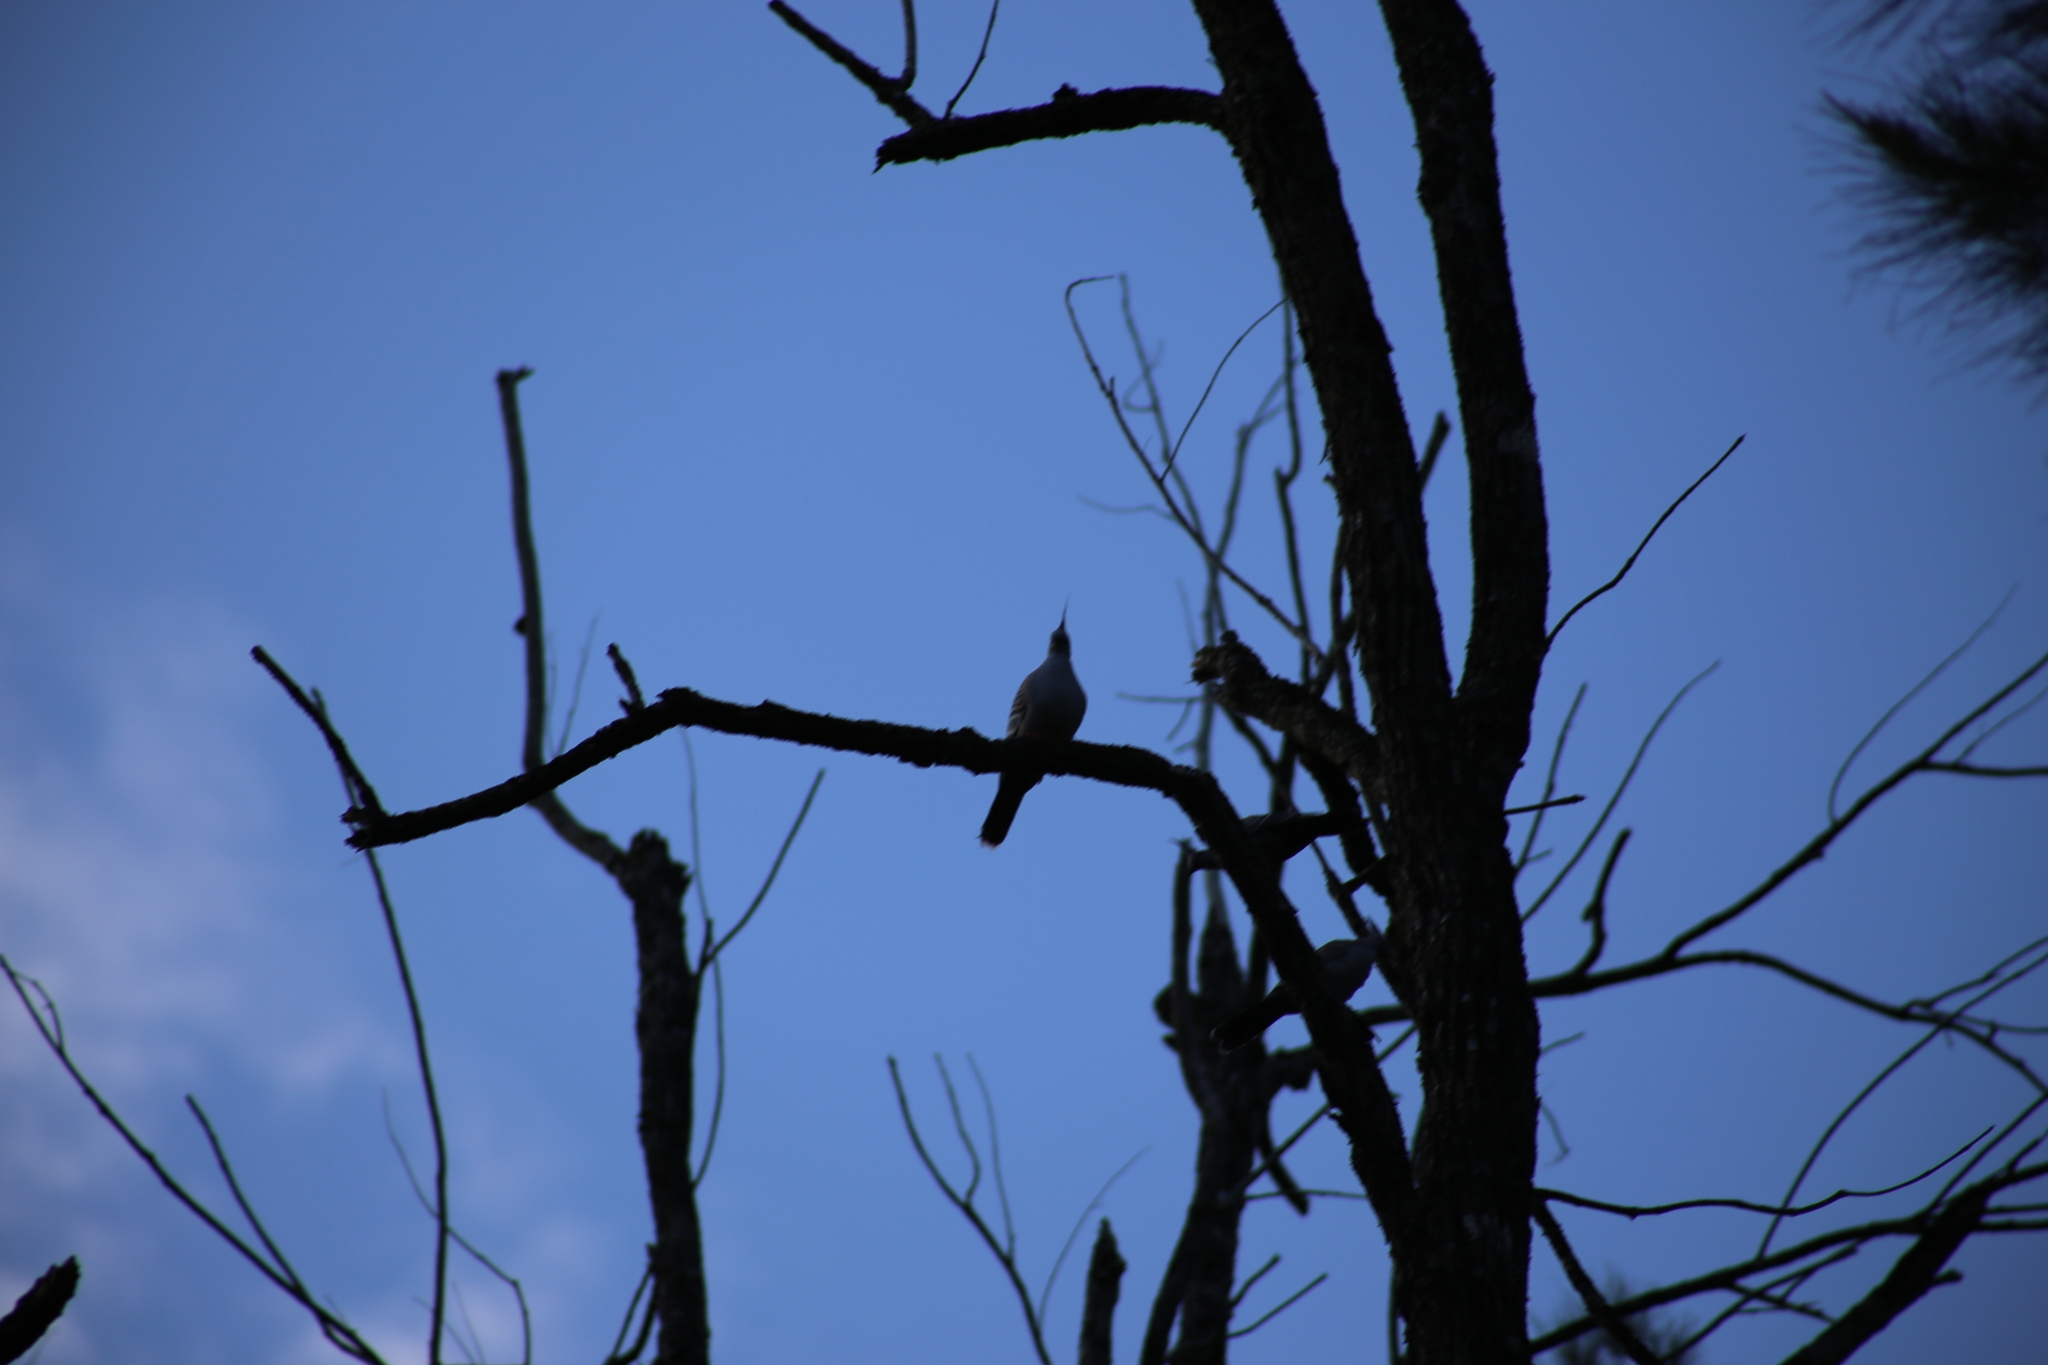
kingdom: Animalia
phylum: Chordata
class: Aves
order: Columbiformes
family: Columbidae
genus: Ocyphaps
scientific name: Ocyphaps lophotes
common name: Crested pigeon
